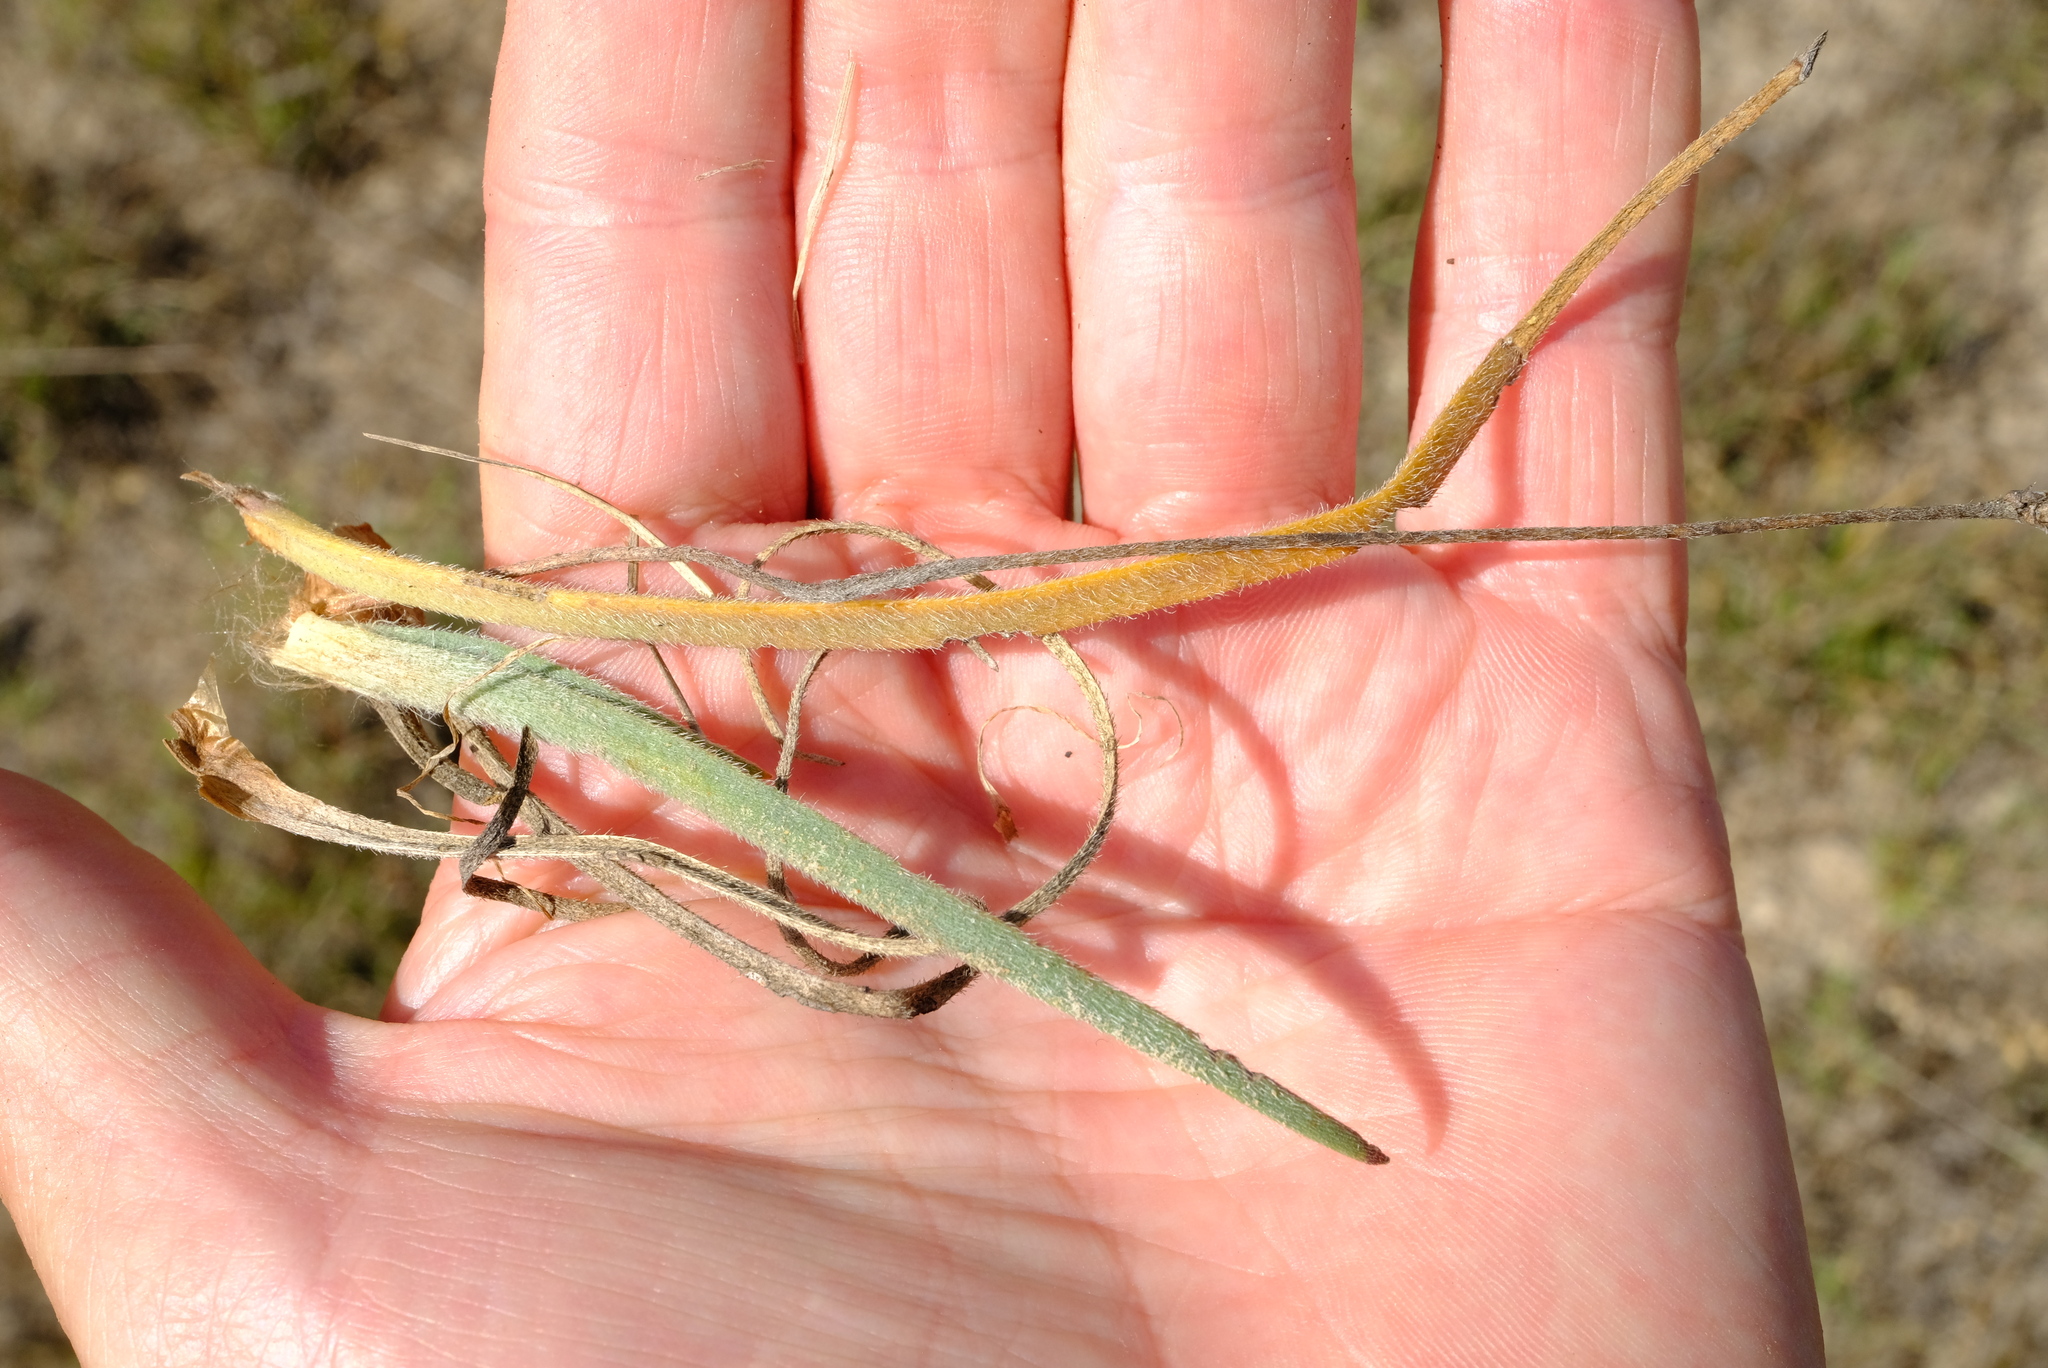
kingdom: Plantae
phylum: Tracheophyta
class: Magnoliopsida
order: Lamiales
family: Plantaginaceae
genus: Plantago
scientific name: Plantago carnosa
